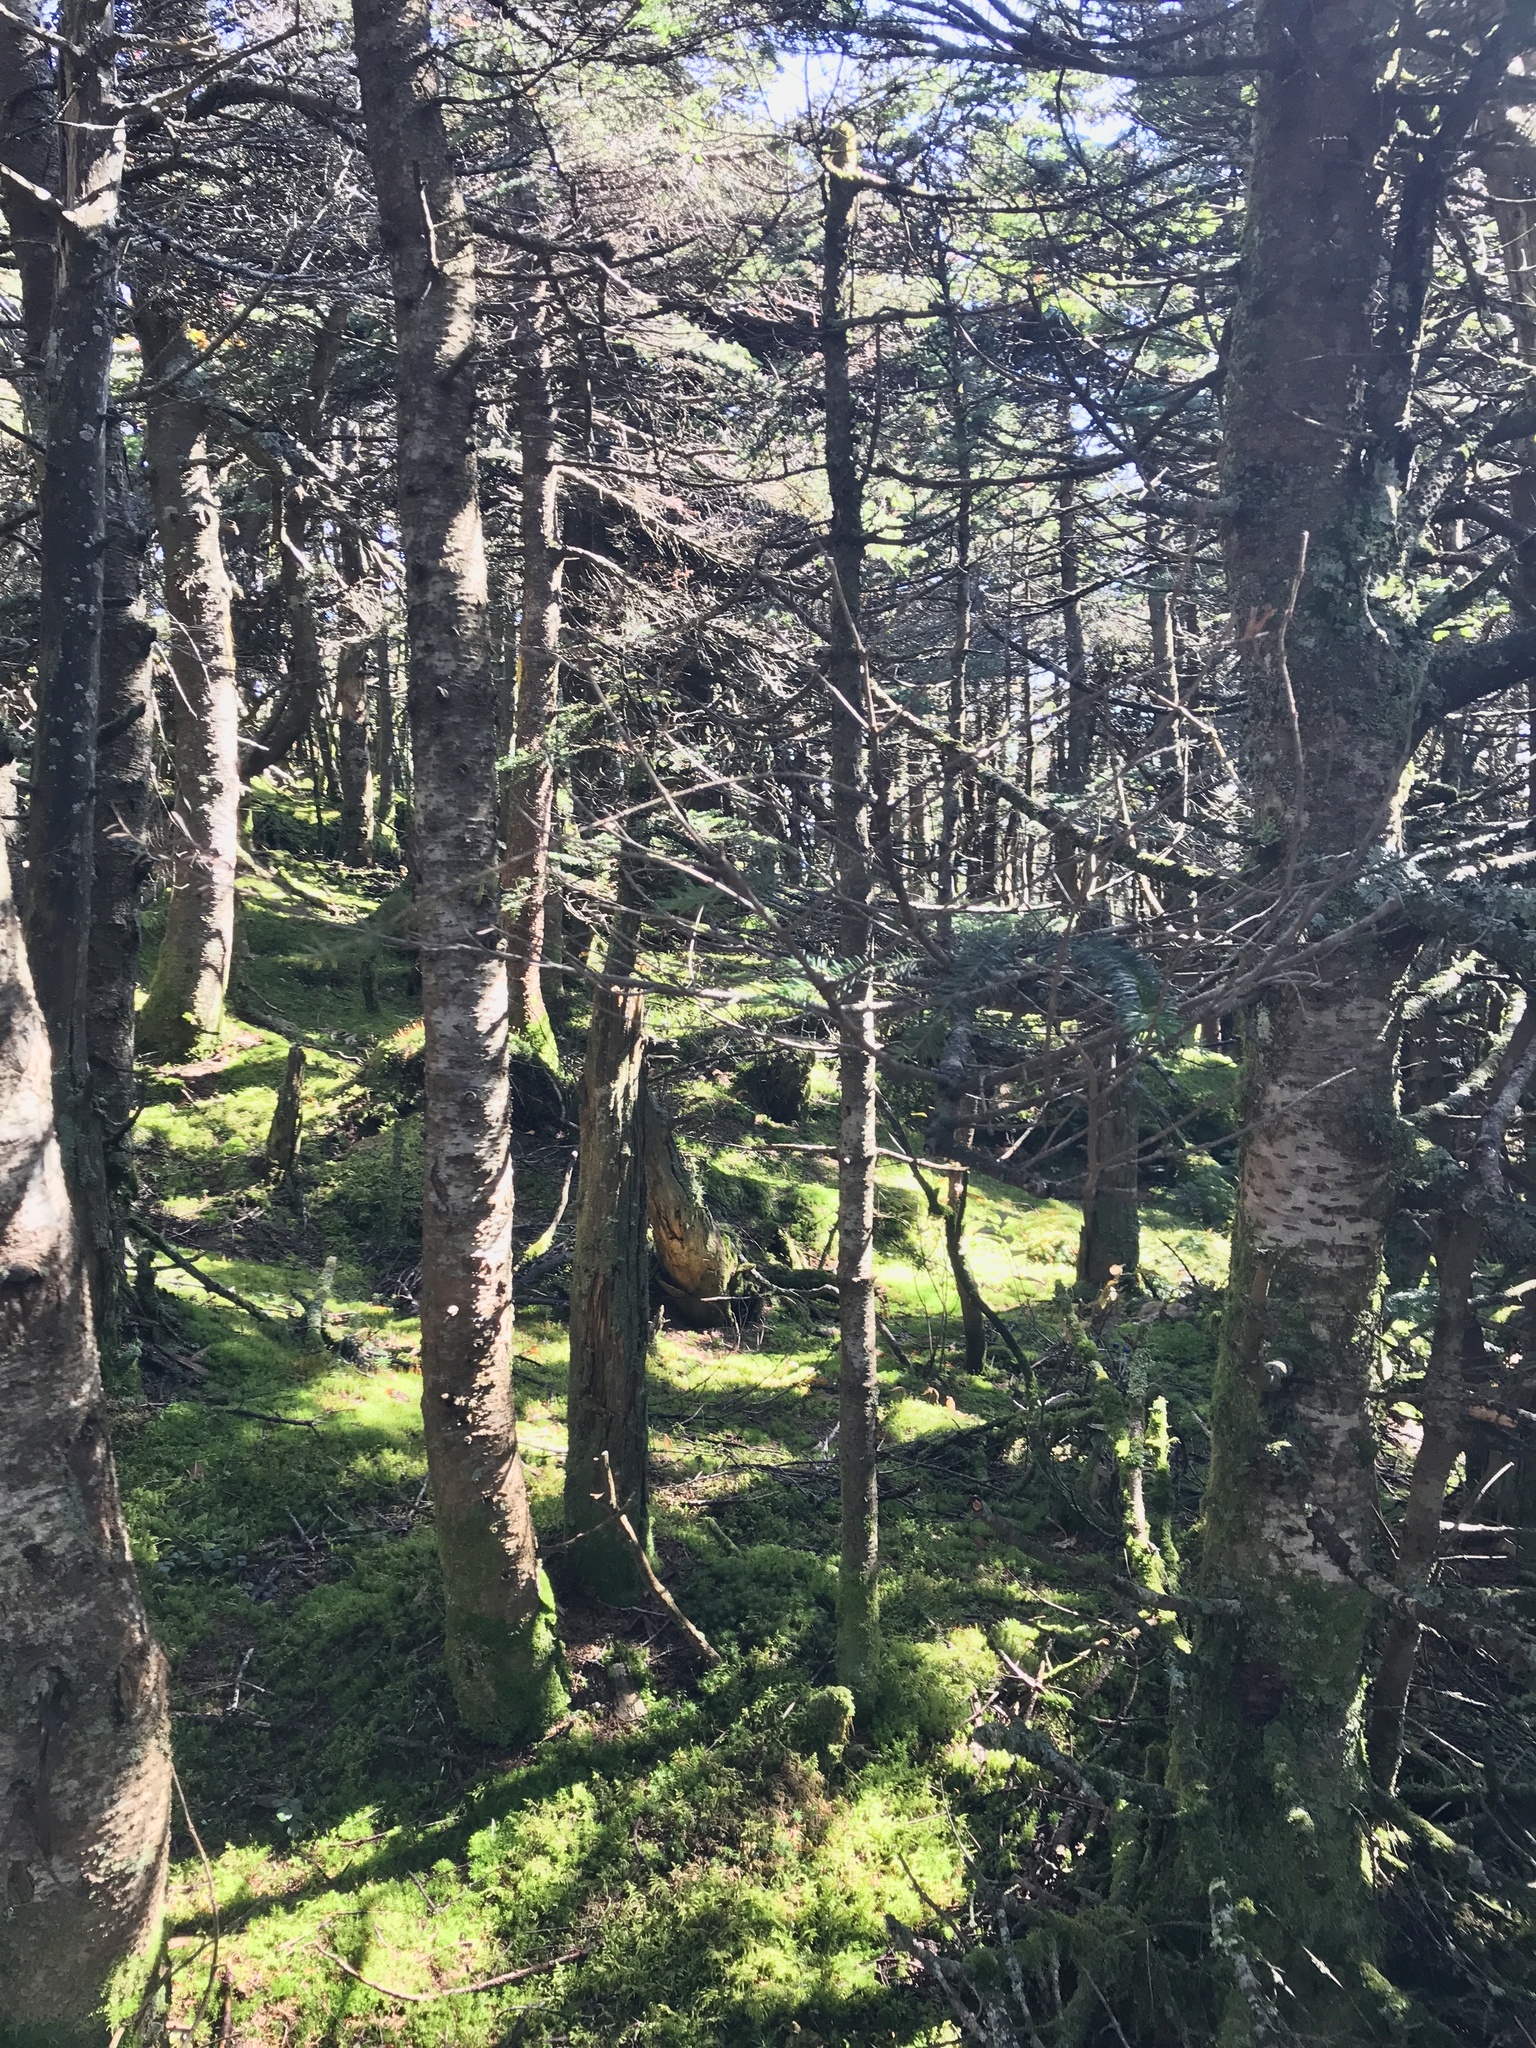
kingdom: Plantae
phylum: Tracheophyta
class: Pinopsida
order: Pinales
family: Pinaceae
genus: Abies
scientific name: Abies balsamea
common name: Balsam fir
